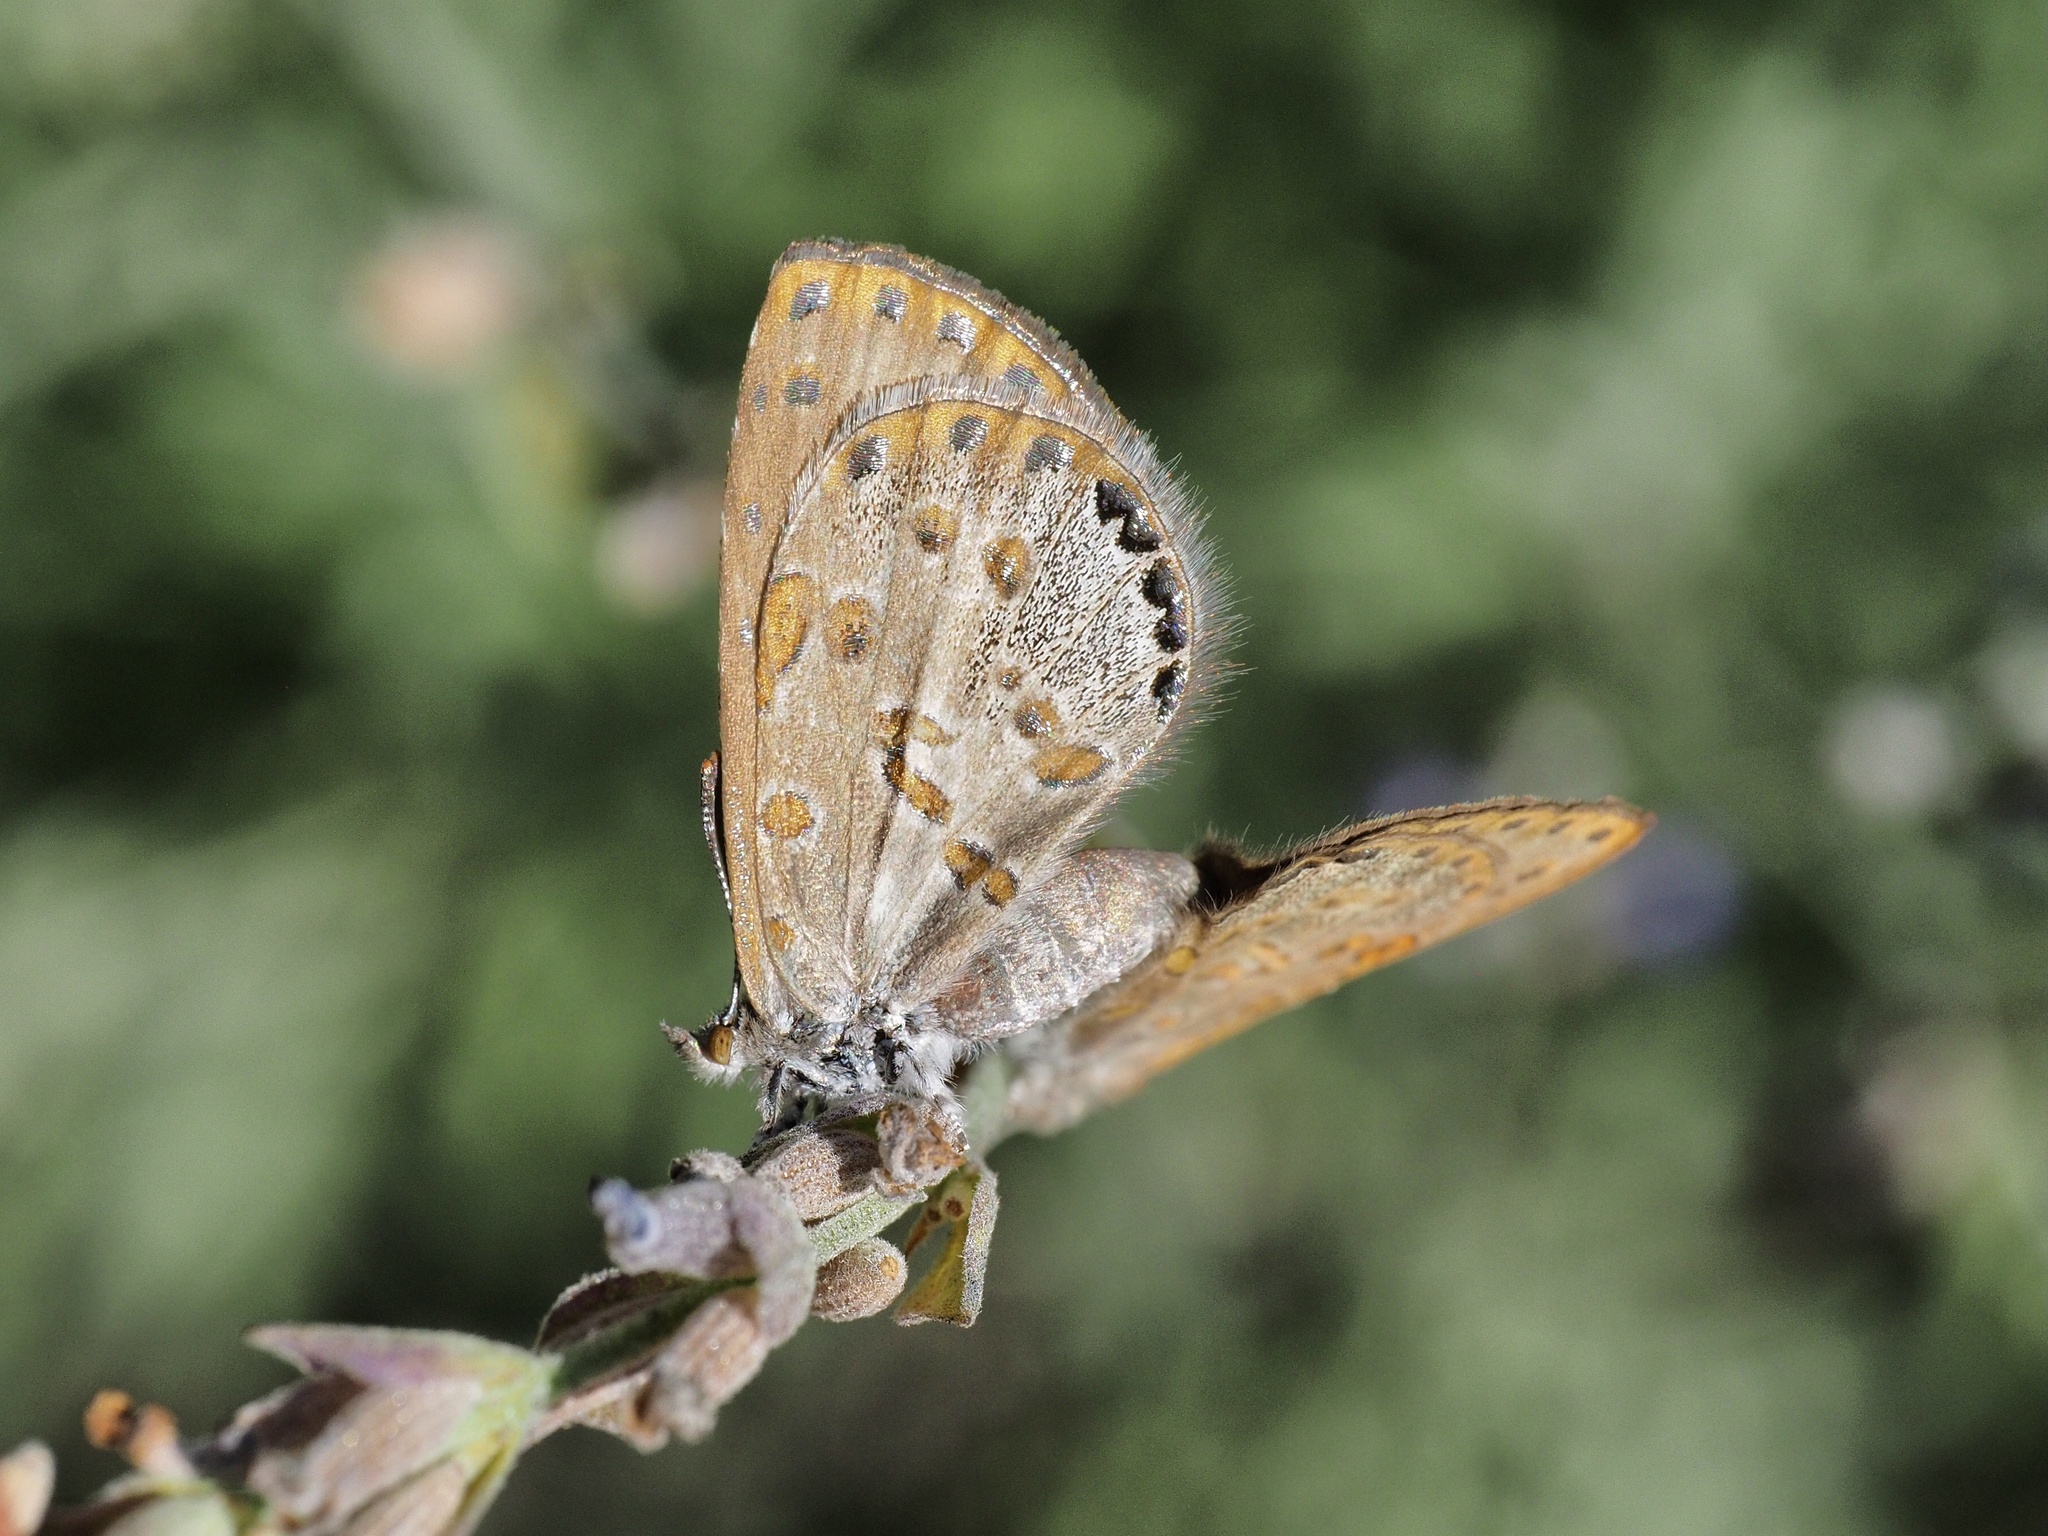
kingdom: Animalia
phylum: Arthropoda
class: Insecta
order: Lepidoptera
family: Lycaenidae
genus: Lachnocnema
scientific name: Lachnocnema durbani
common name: D'urban's woolly legs
